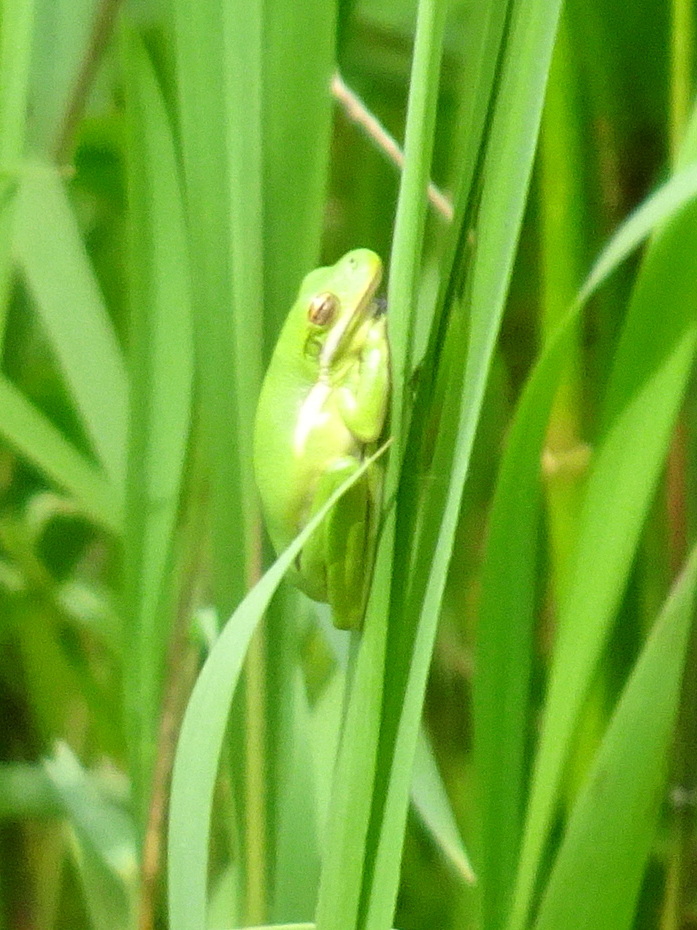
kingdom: Animalia
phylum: Chordata
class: Amphibia
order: Anura
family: Hylidae
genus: Dryophytes
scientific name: Dryophytes cinereus
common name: Green treefrog
